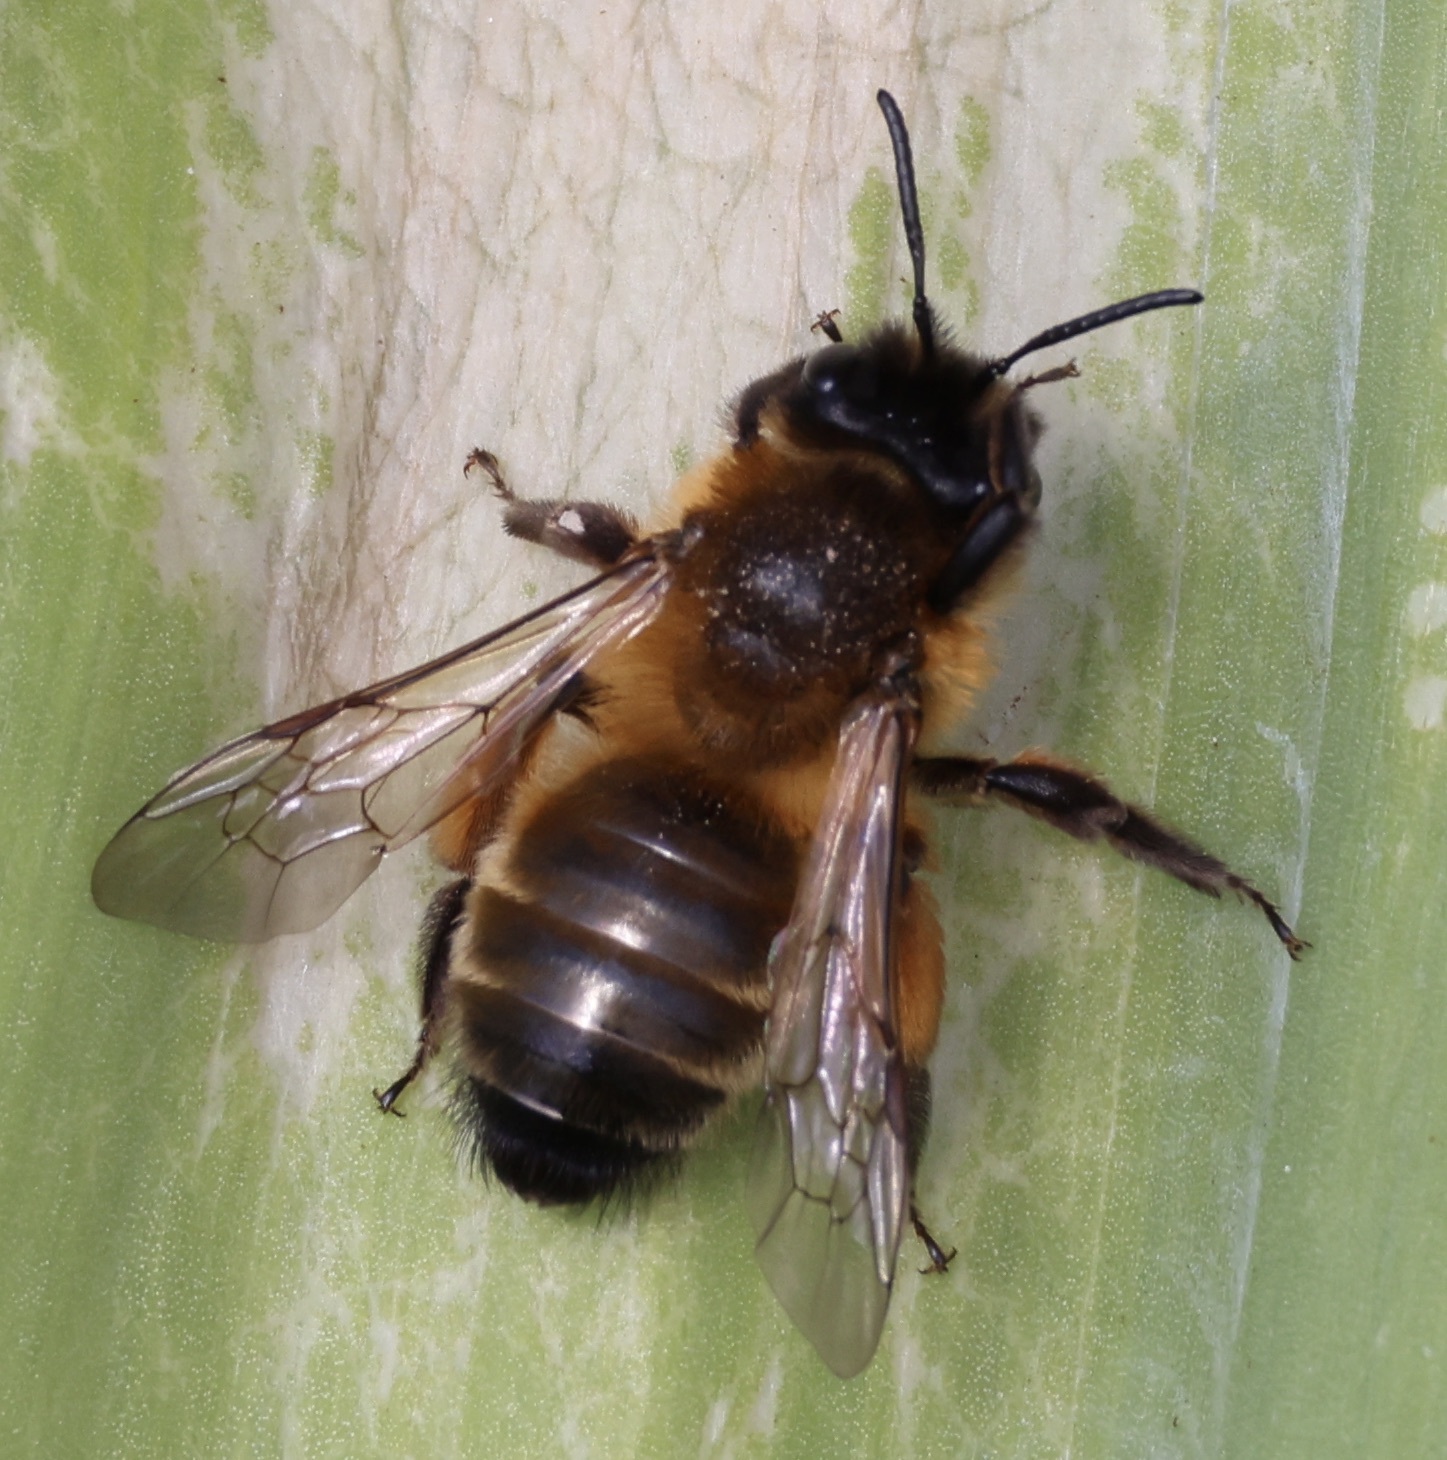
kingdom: Animalia
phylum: Arthropoda
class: Insecta
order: Hymenoptera
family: Andrenidae
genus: Andrena
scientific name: Andrena nigroaenea
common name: Buffish mining bee
